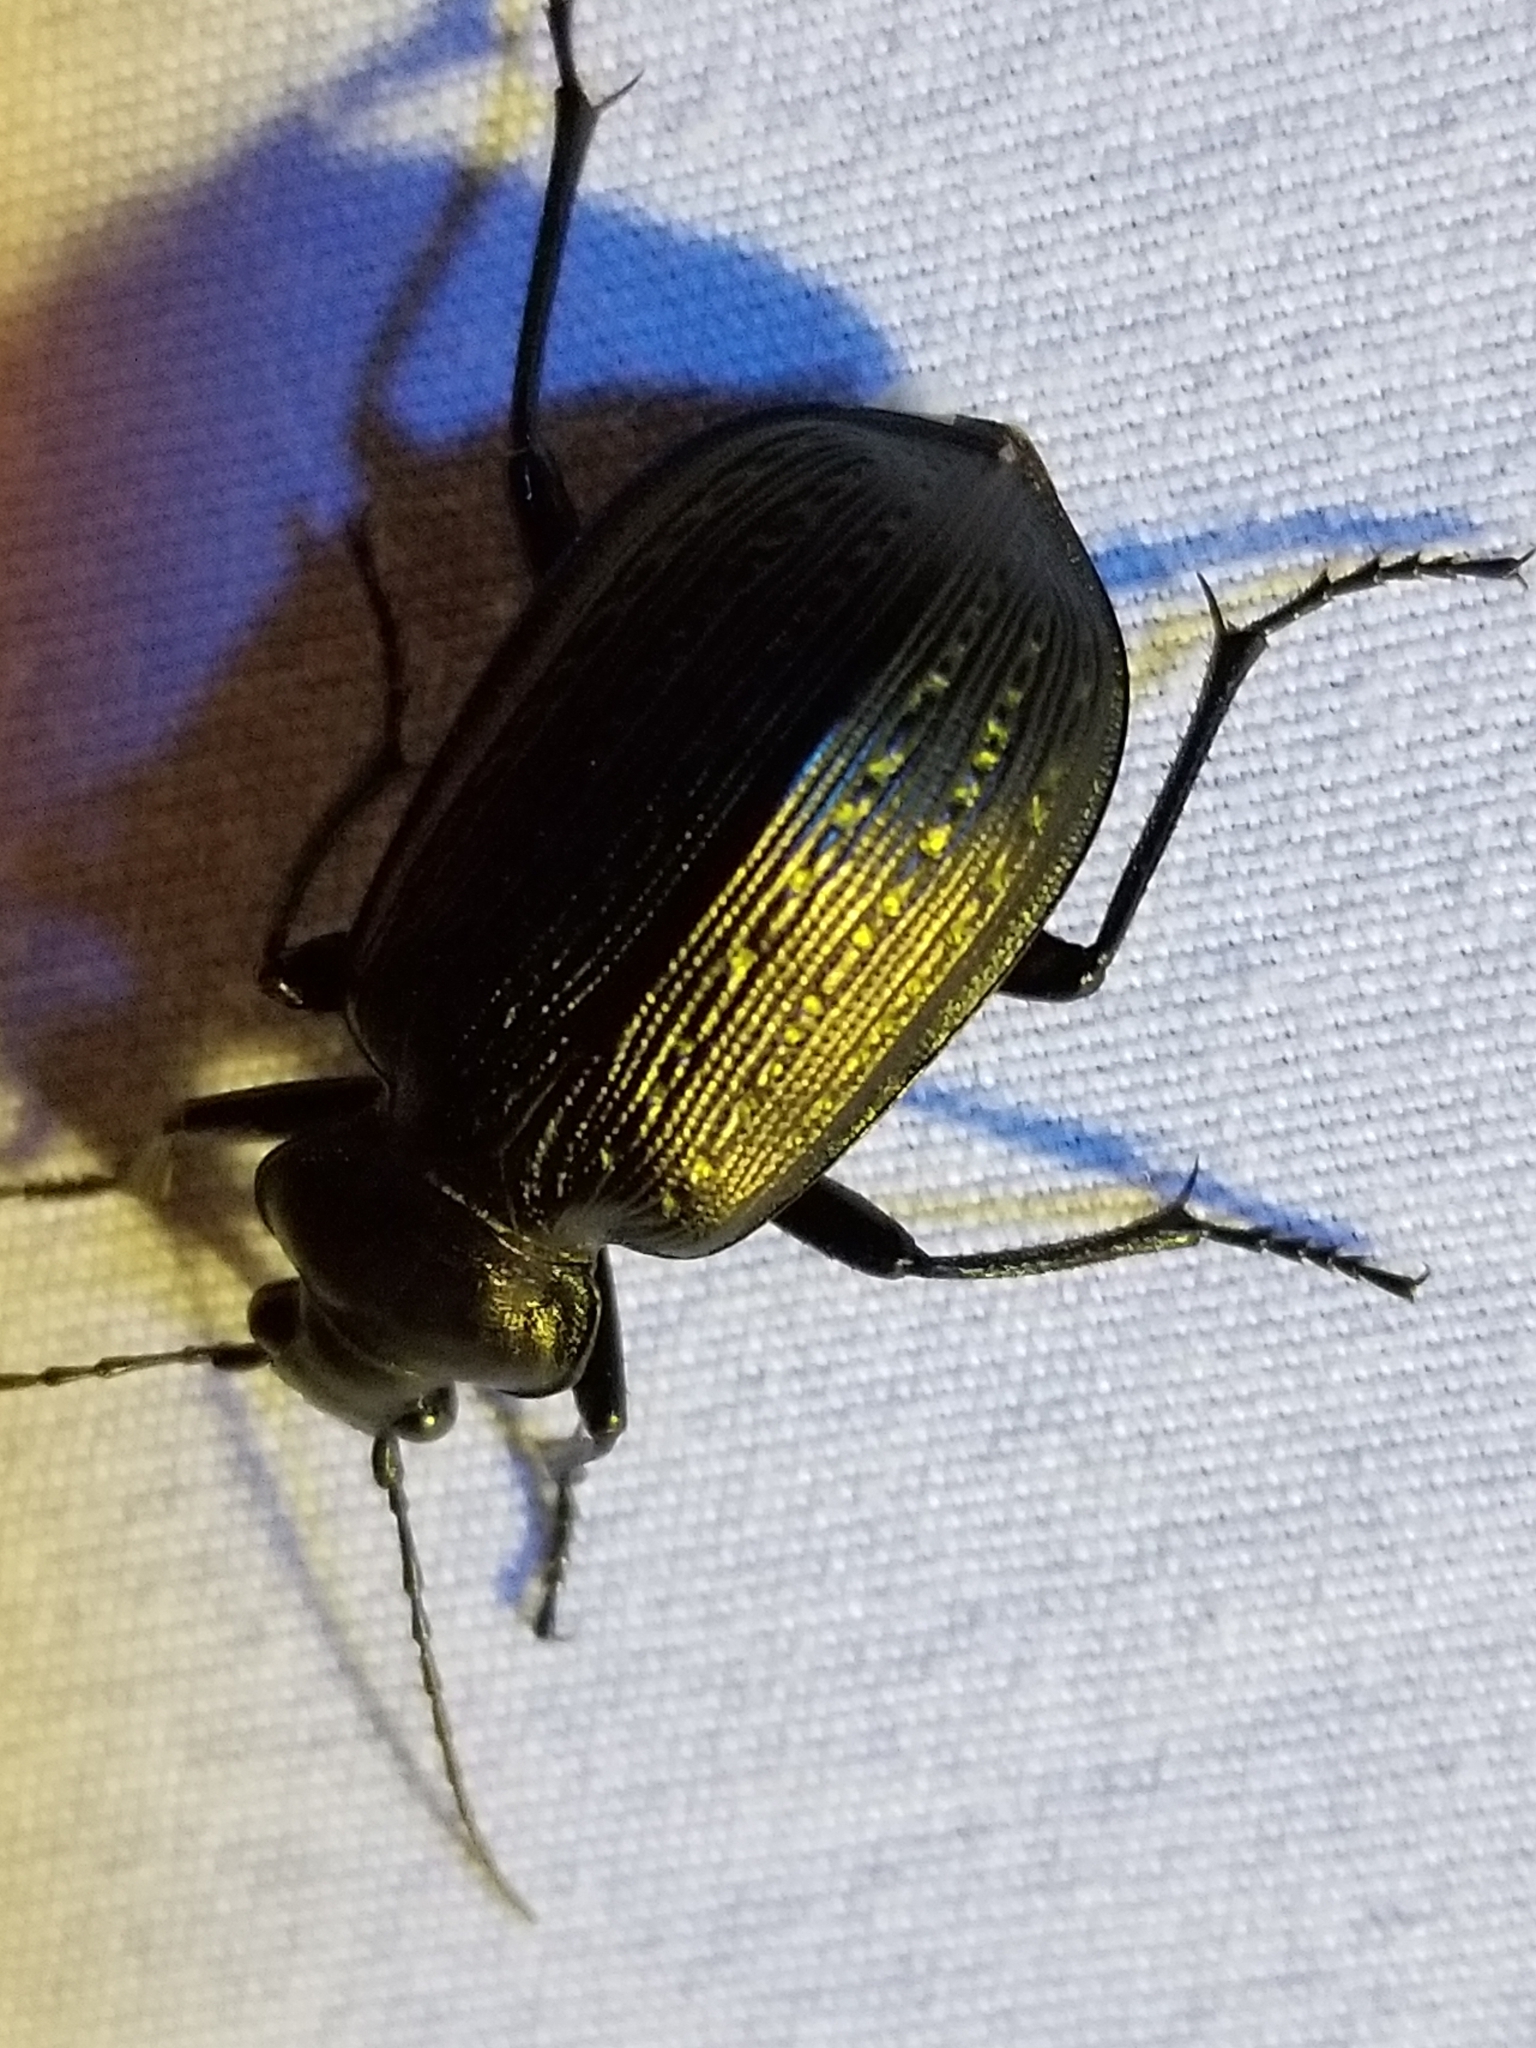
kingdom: Animalia
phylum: Arthropoda
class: Insecta
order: Coleoptera
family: Carabidae
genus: Calosoma
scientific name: Calosoma sayi
